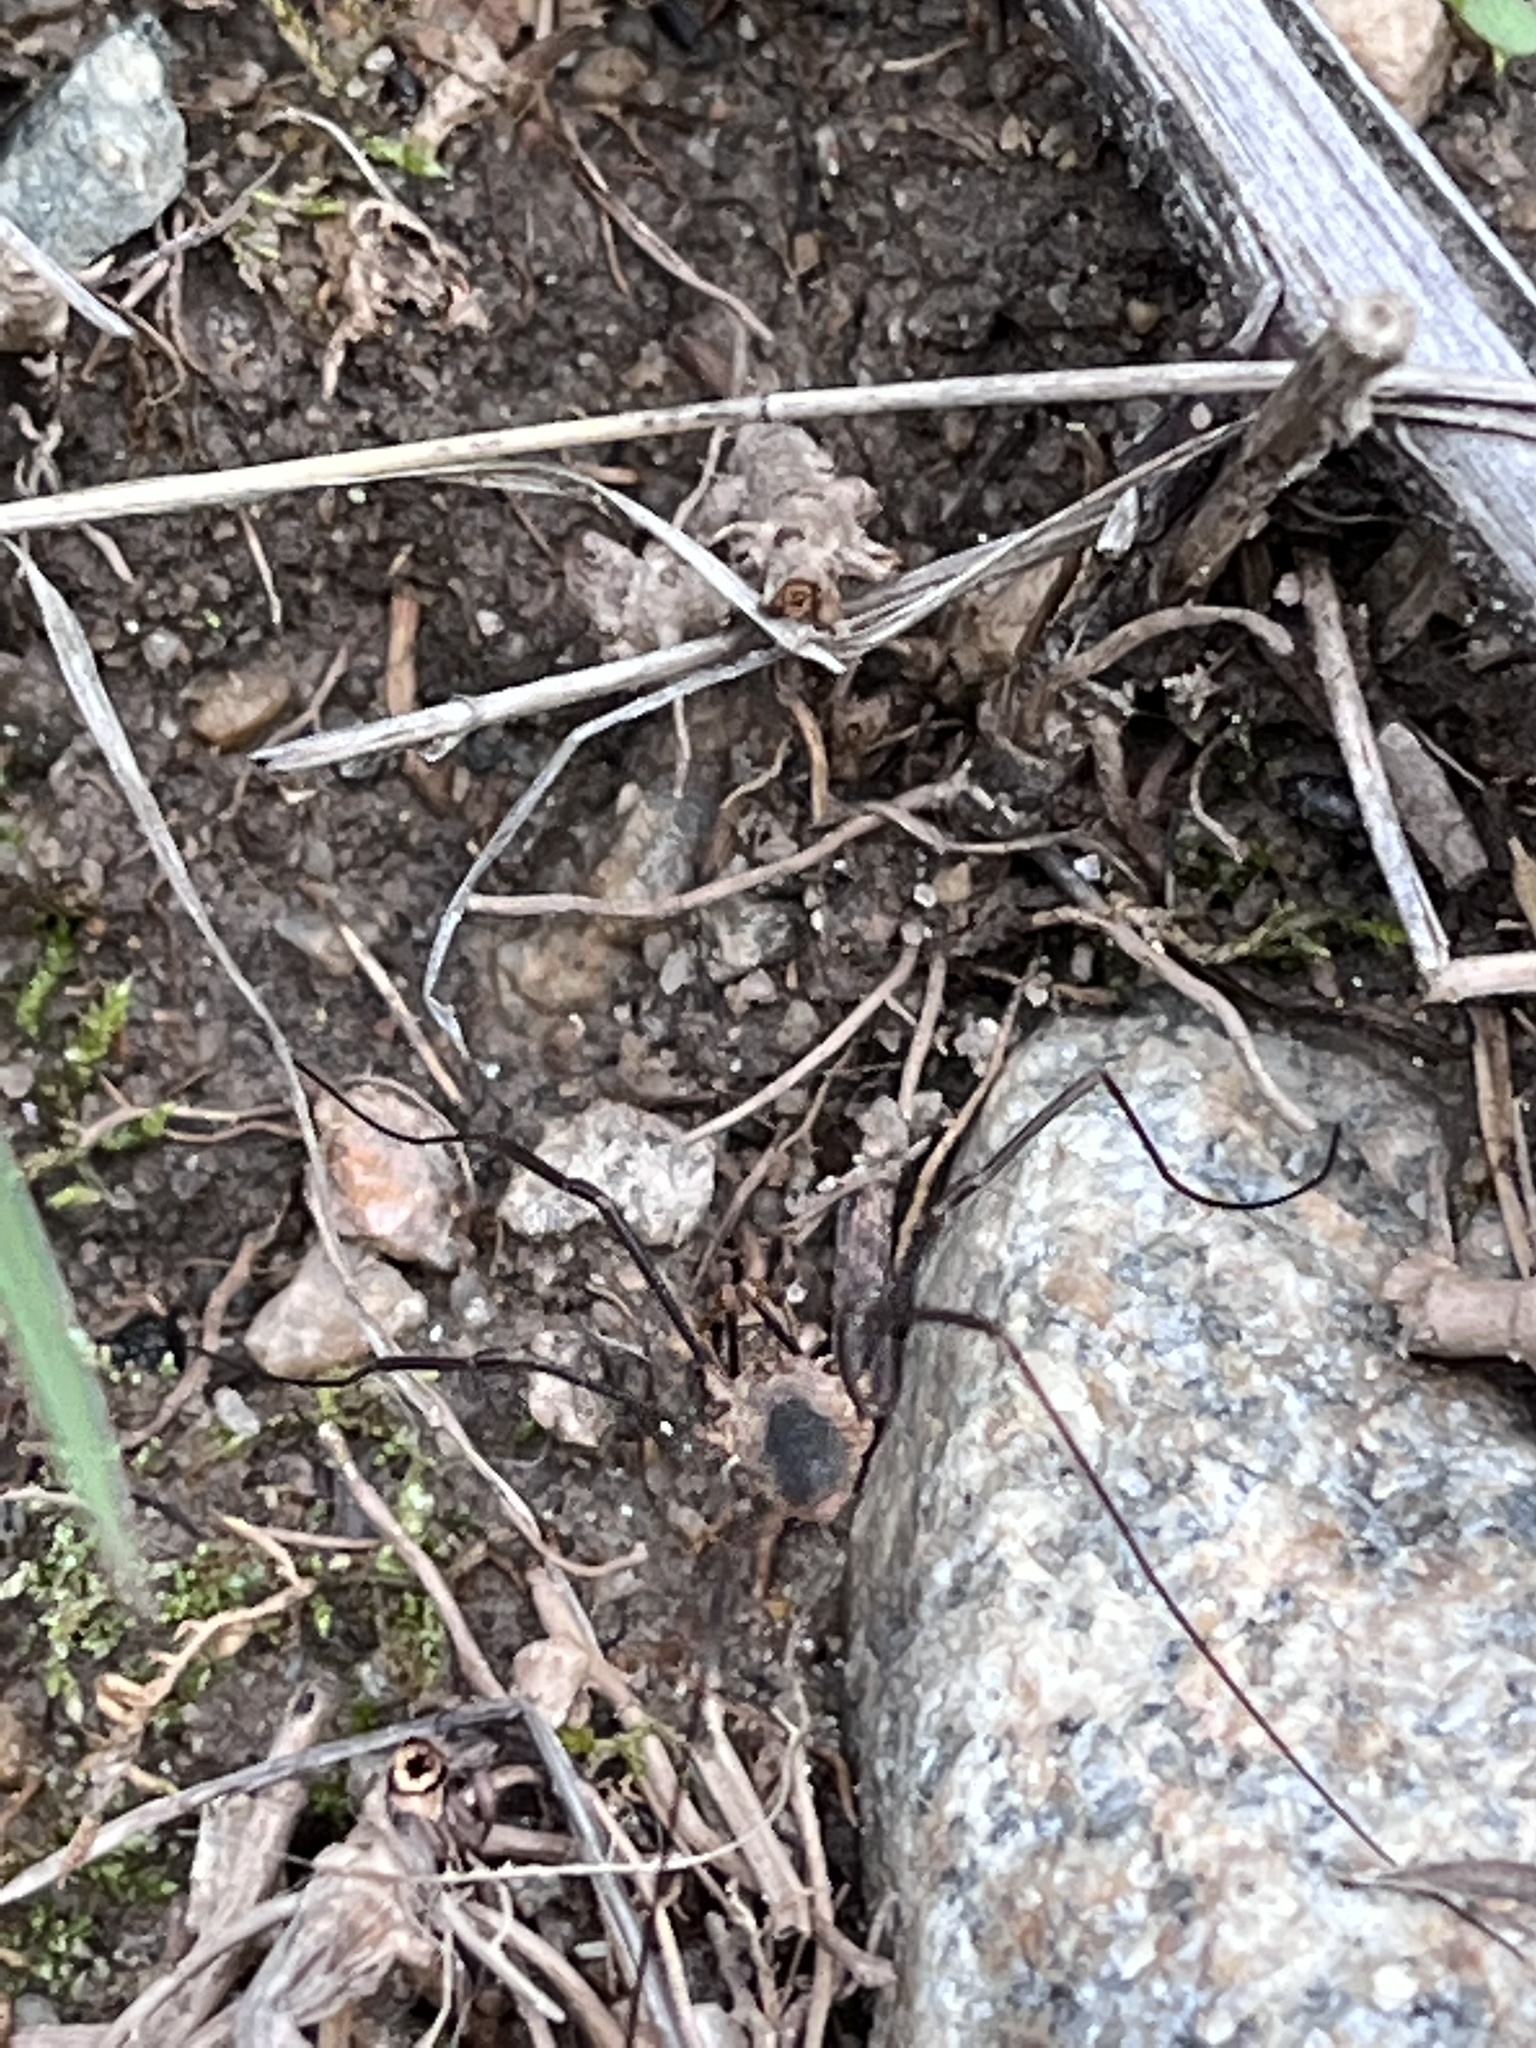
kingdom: Animalia
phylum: Arthropoda
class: Arachnida
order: Opiliones
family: Phalangiidae
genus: Phalangium
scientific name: Phalangium opilio
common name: Daddy longleg
